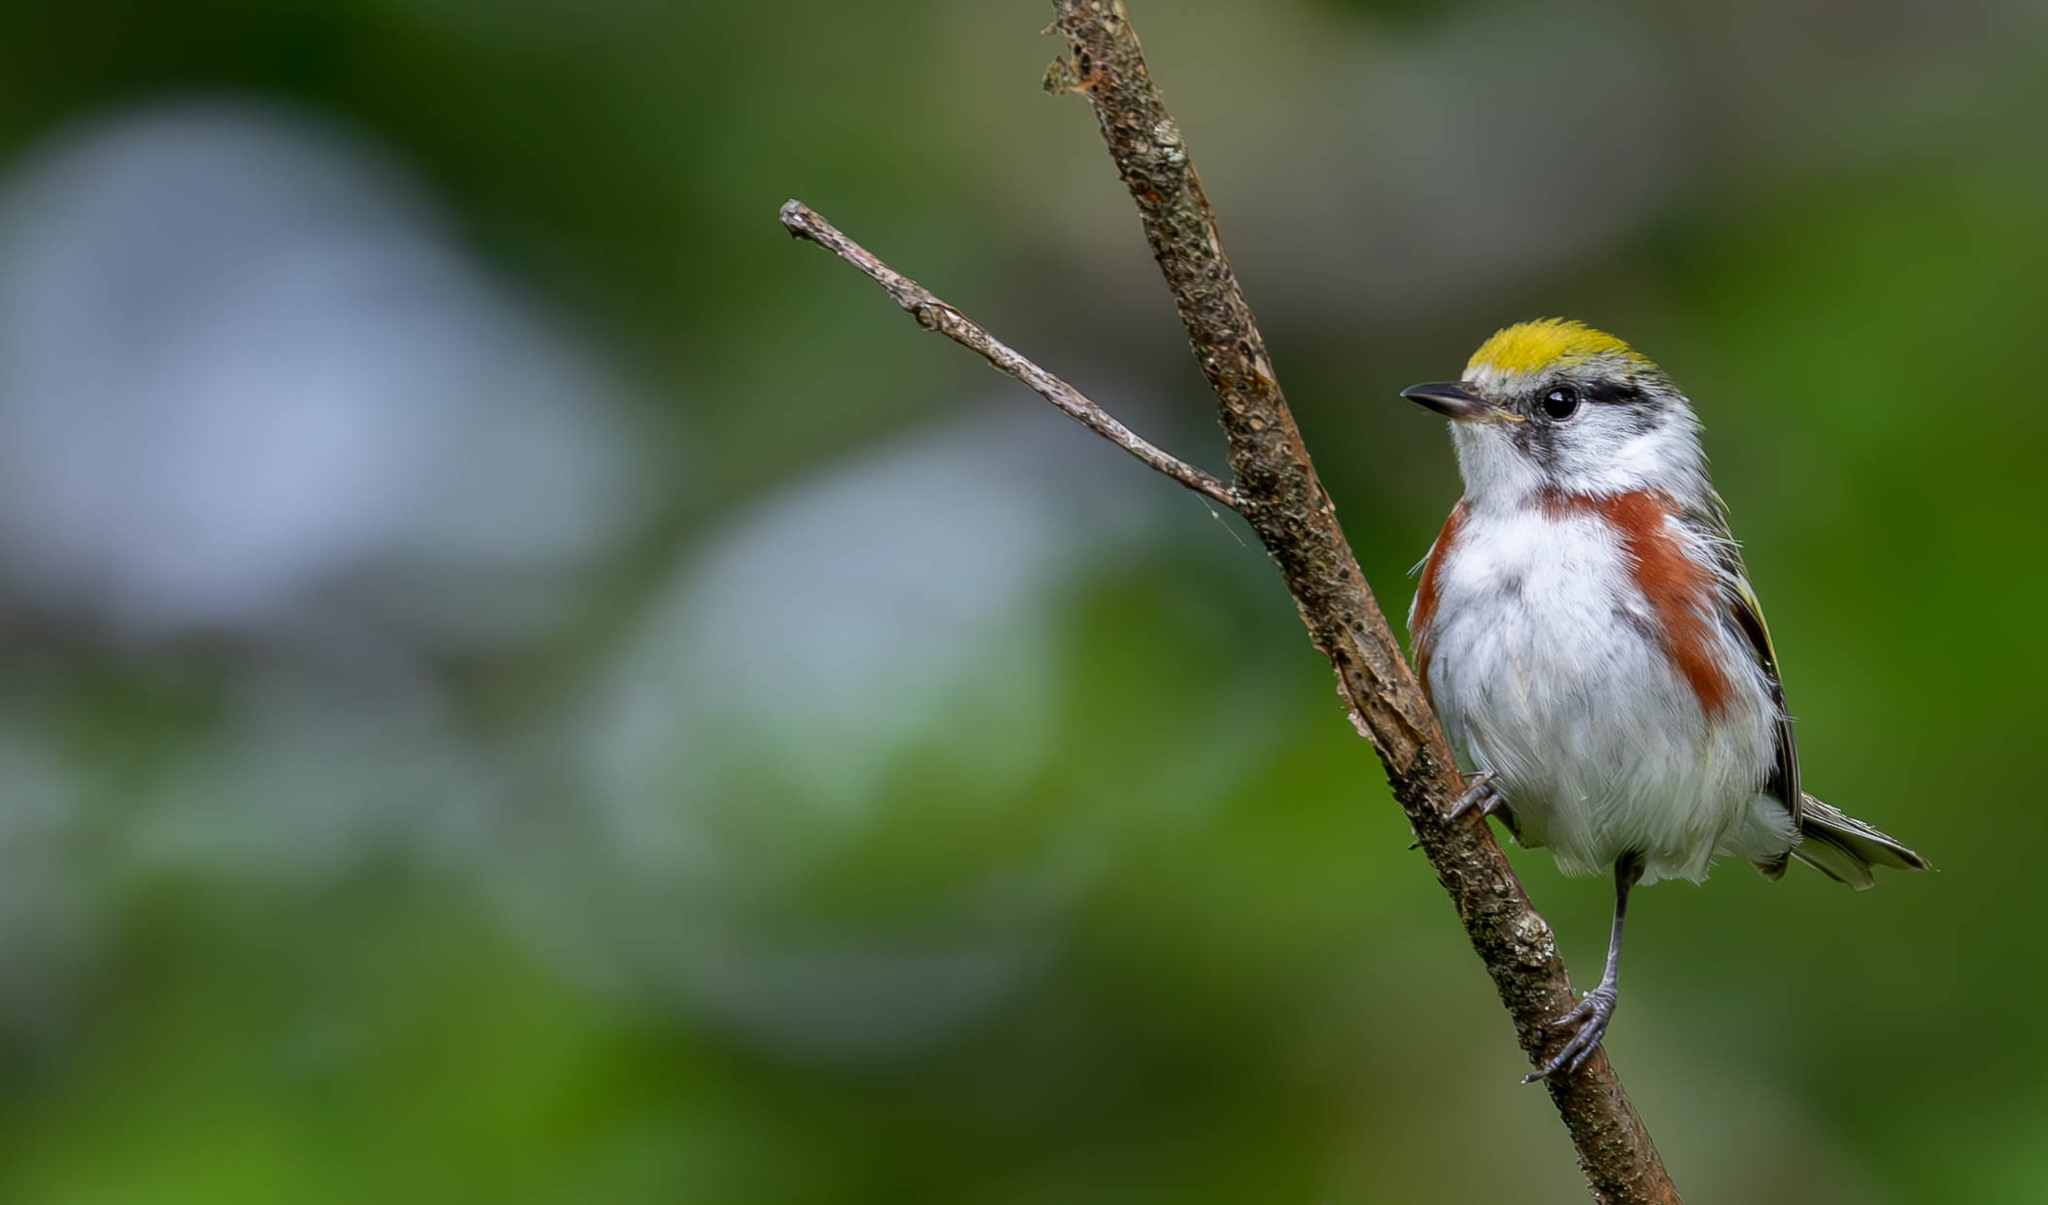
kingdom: Animalia
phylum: Chordata
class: Aves
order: Passeriformes
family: Parulidae
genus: Setophaga
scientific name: Setophaga pensylvanica
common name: Chestnut-sided warbler
